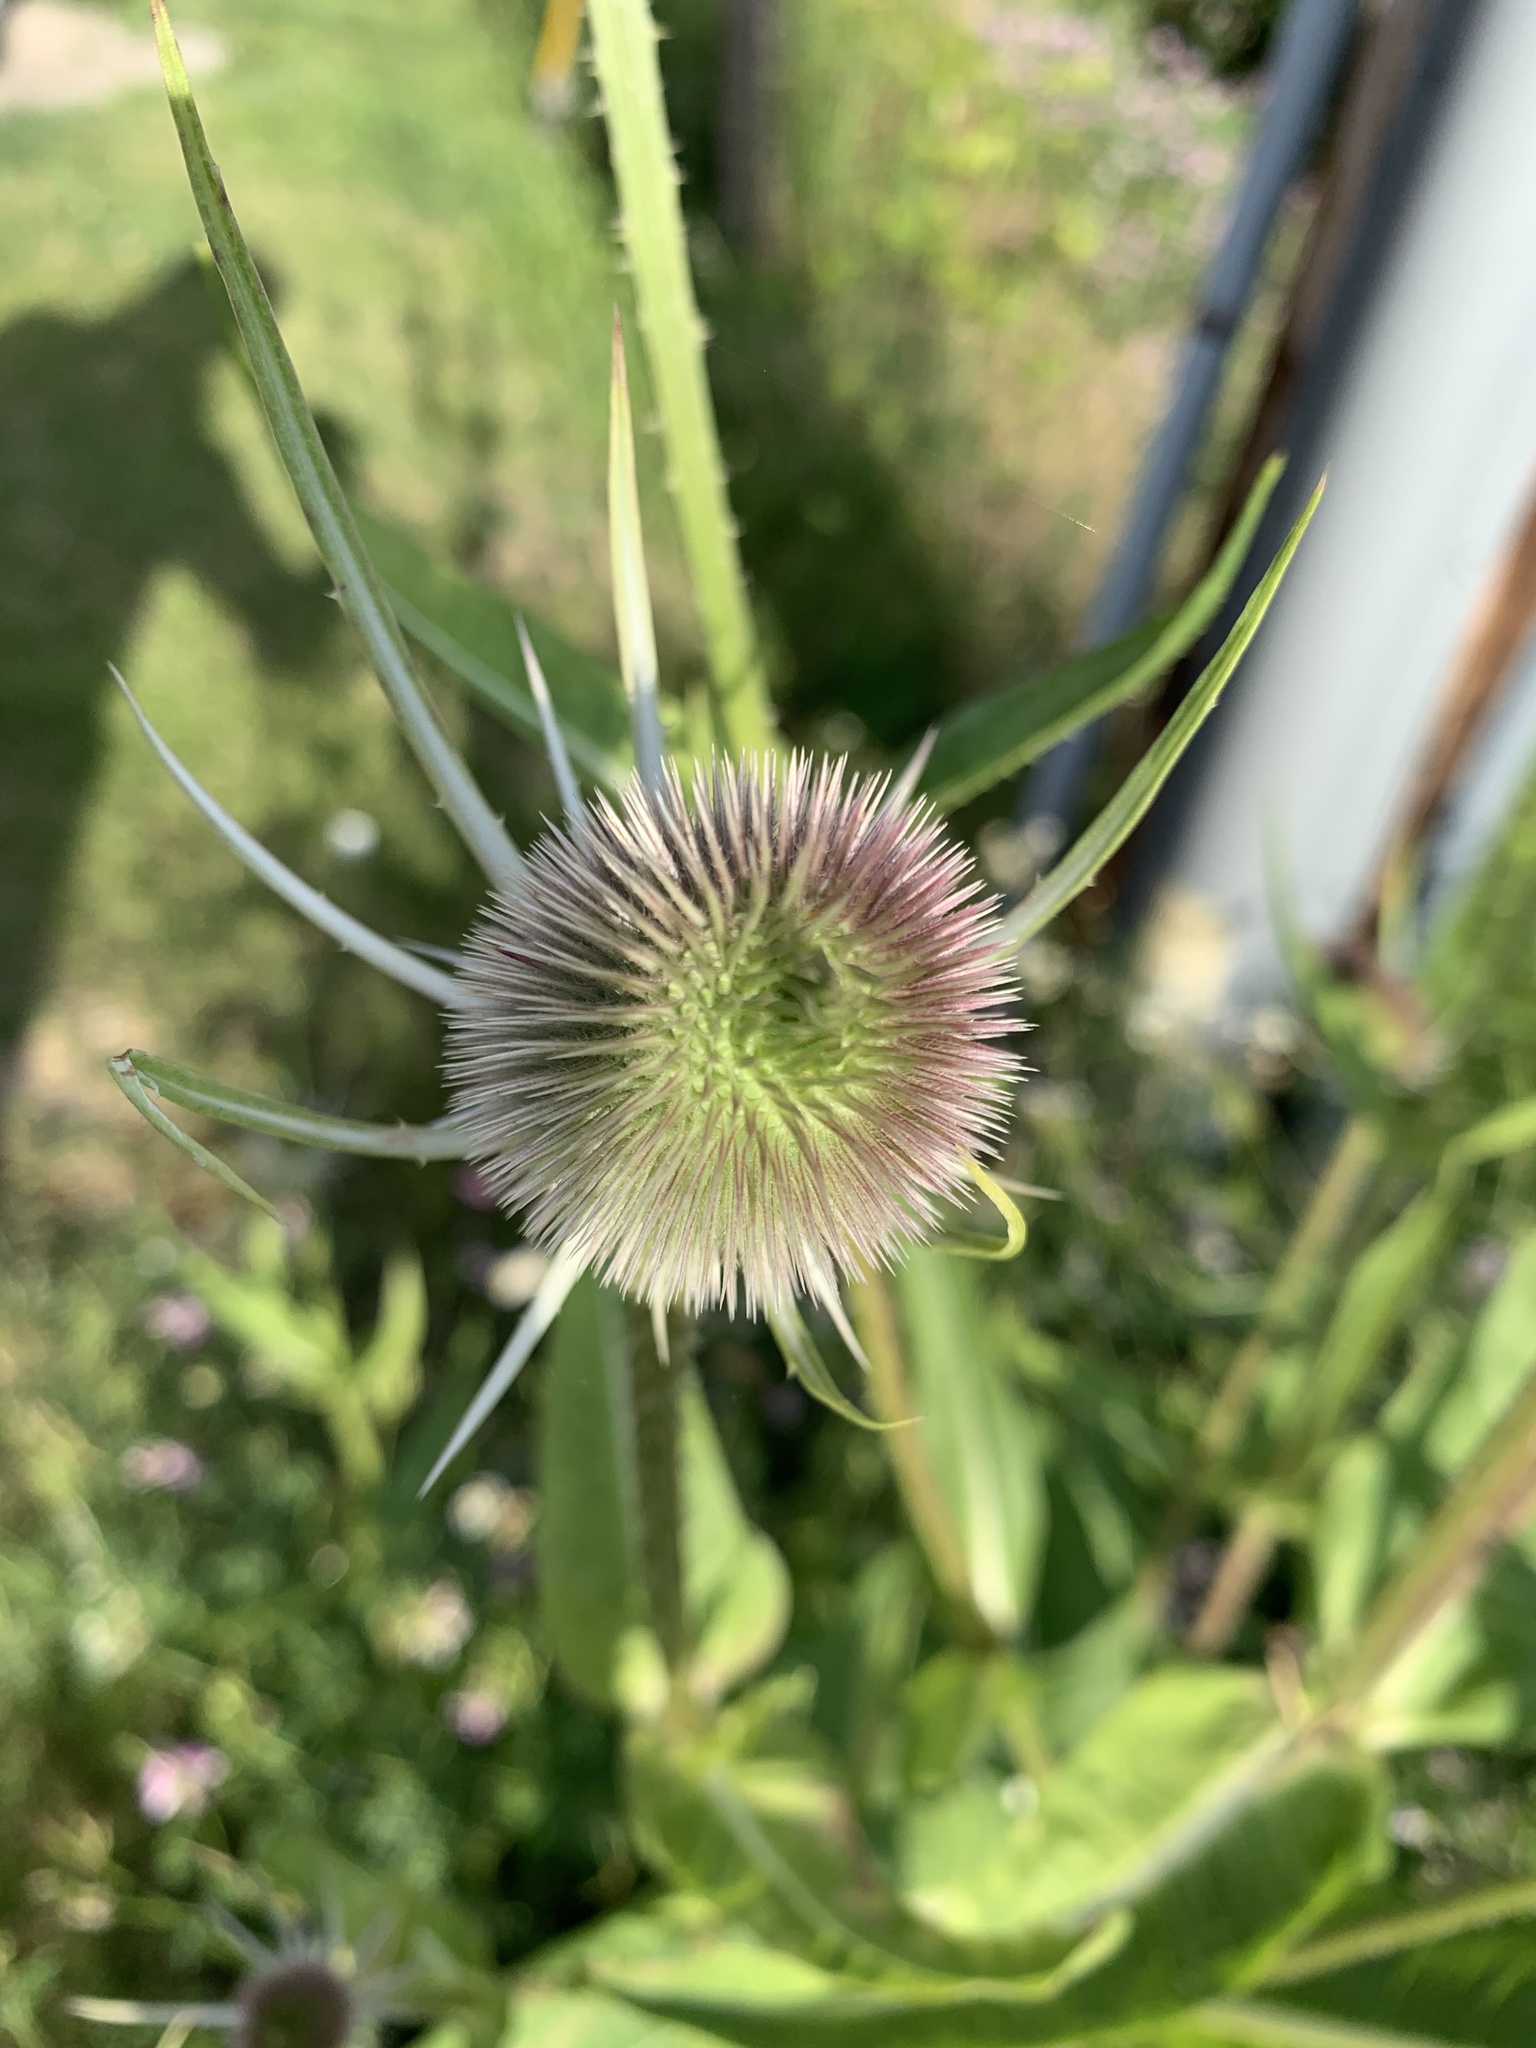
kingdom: Plantae
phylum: Tracheophyta
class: Magnoliopsida
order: Dipsacales
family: Caprifoliaceae
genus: Dipsacus
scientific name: Dipsacus fullonum
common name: Teasel
